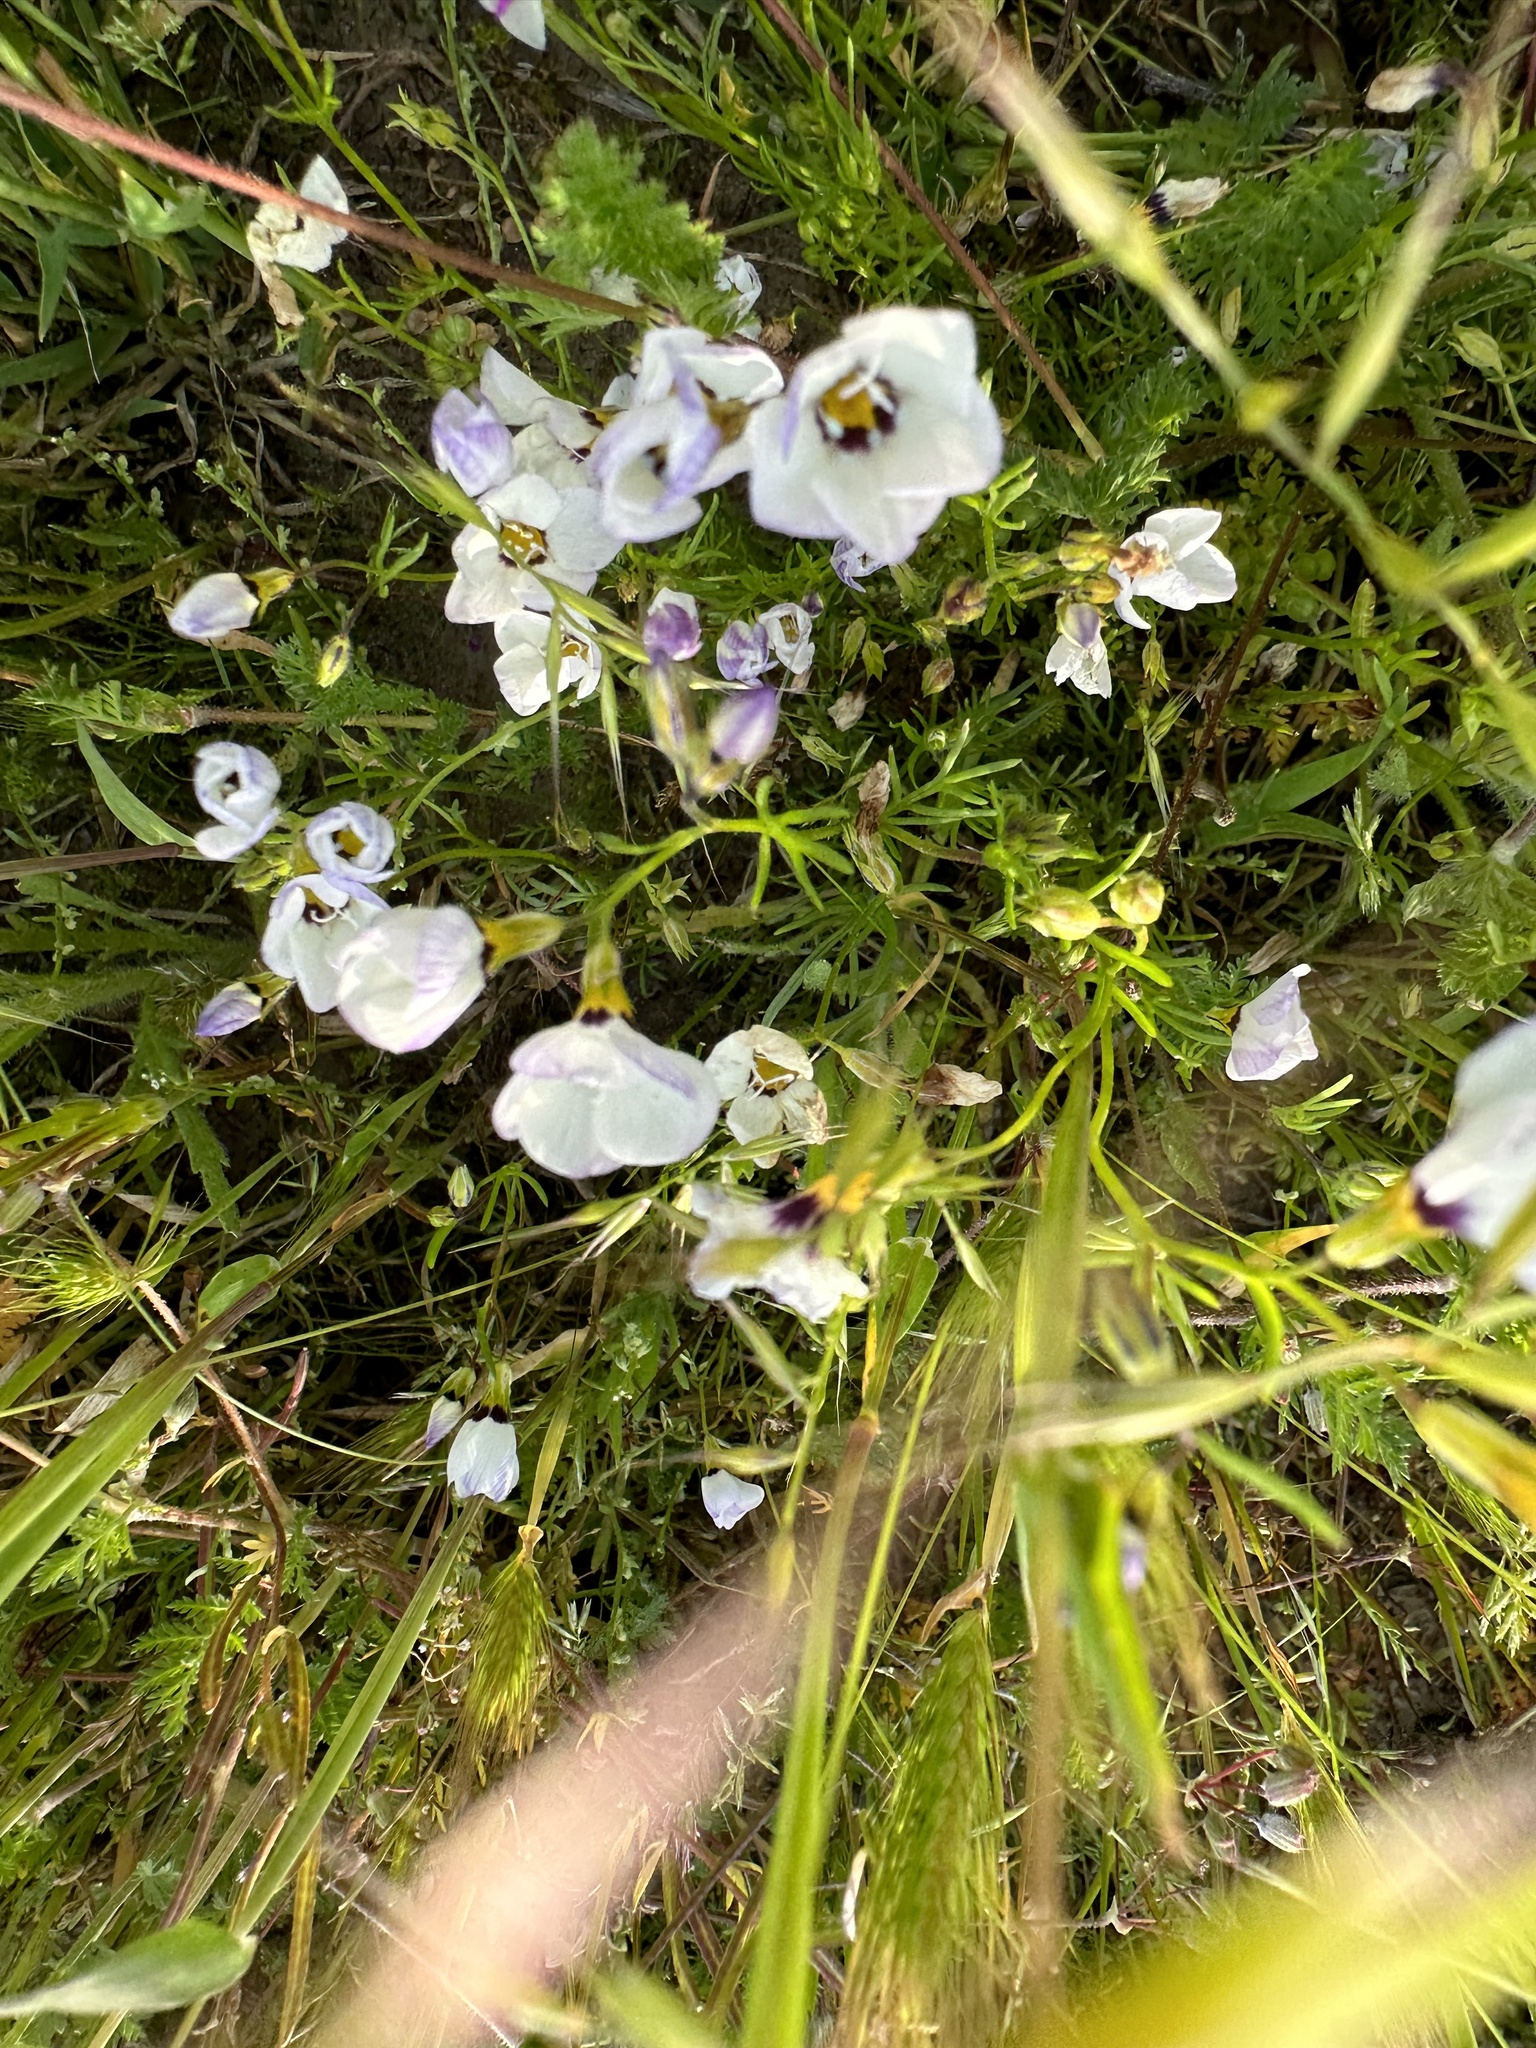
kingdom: Plantae
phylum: Tracheophyta
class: Magnoliopsida
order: Ericales
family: Polemoniaceae
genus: Gilia
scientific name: Gilia tricolor
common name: Bird's-eyes
